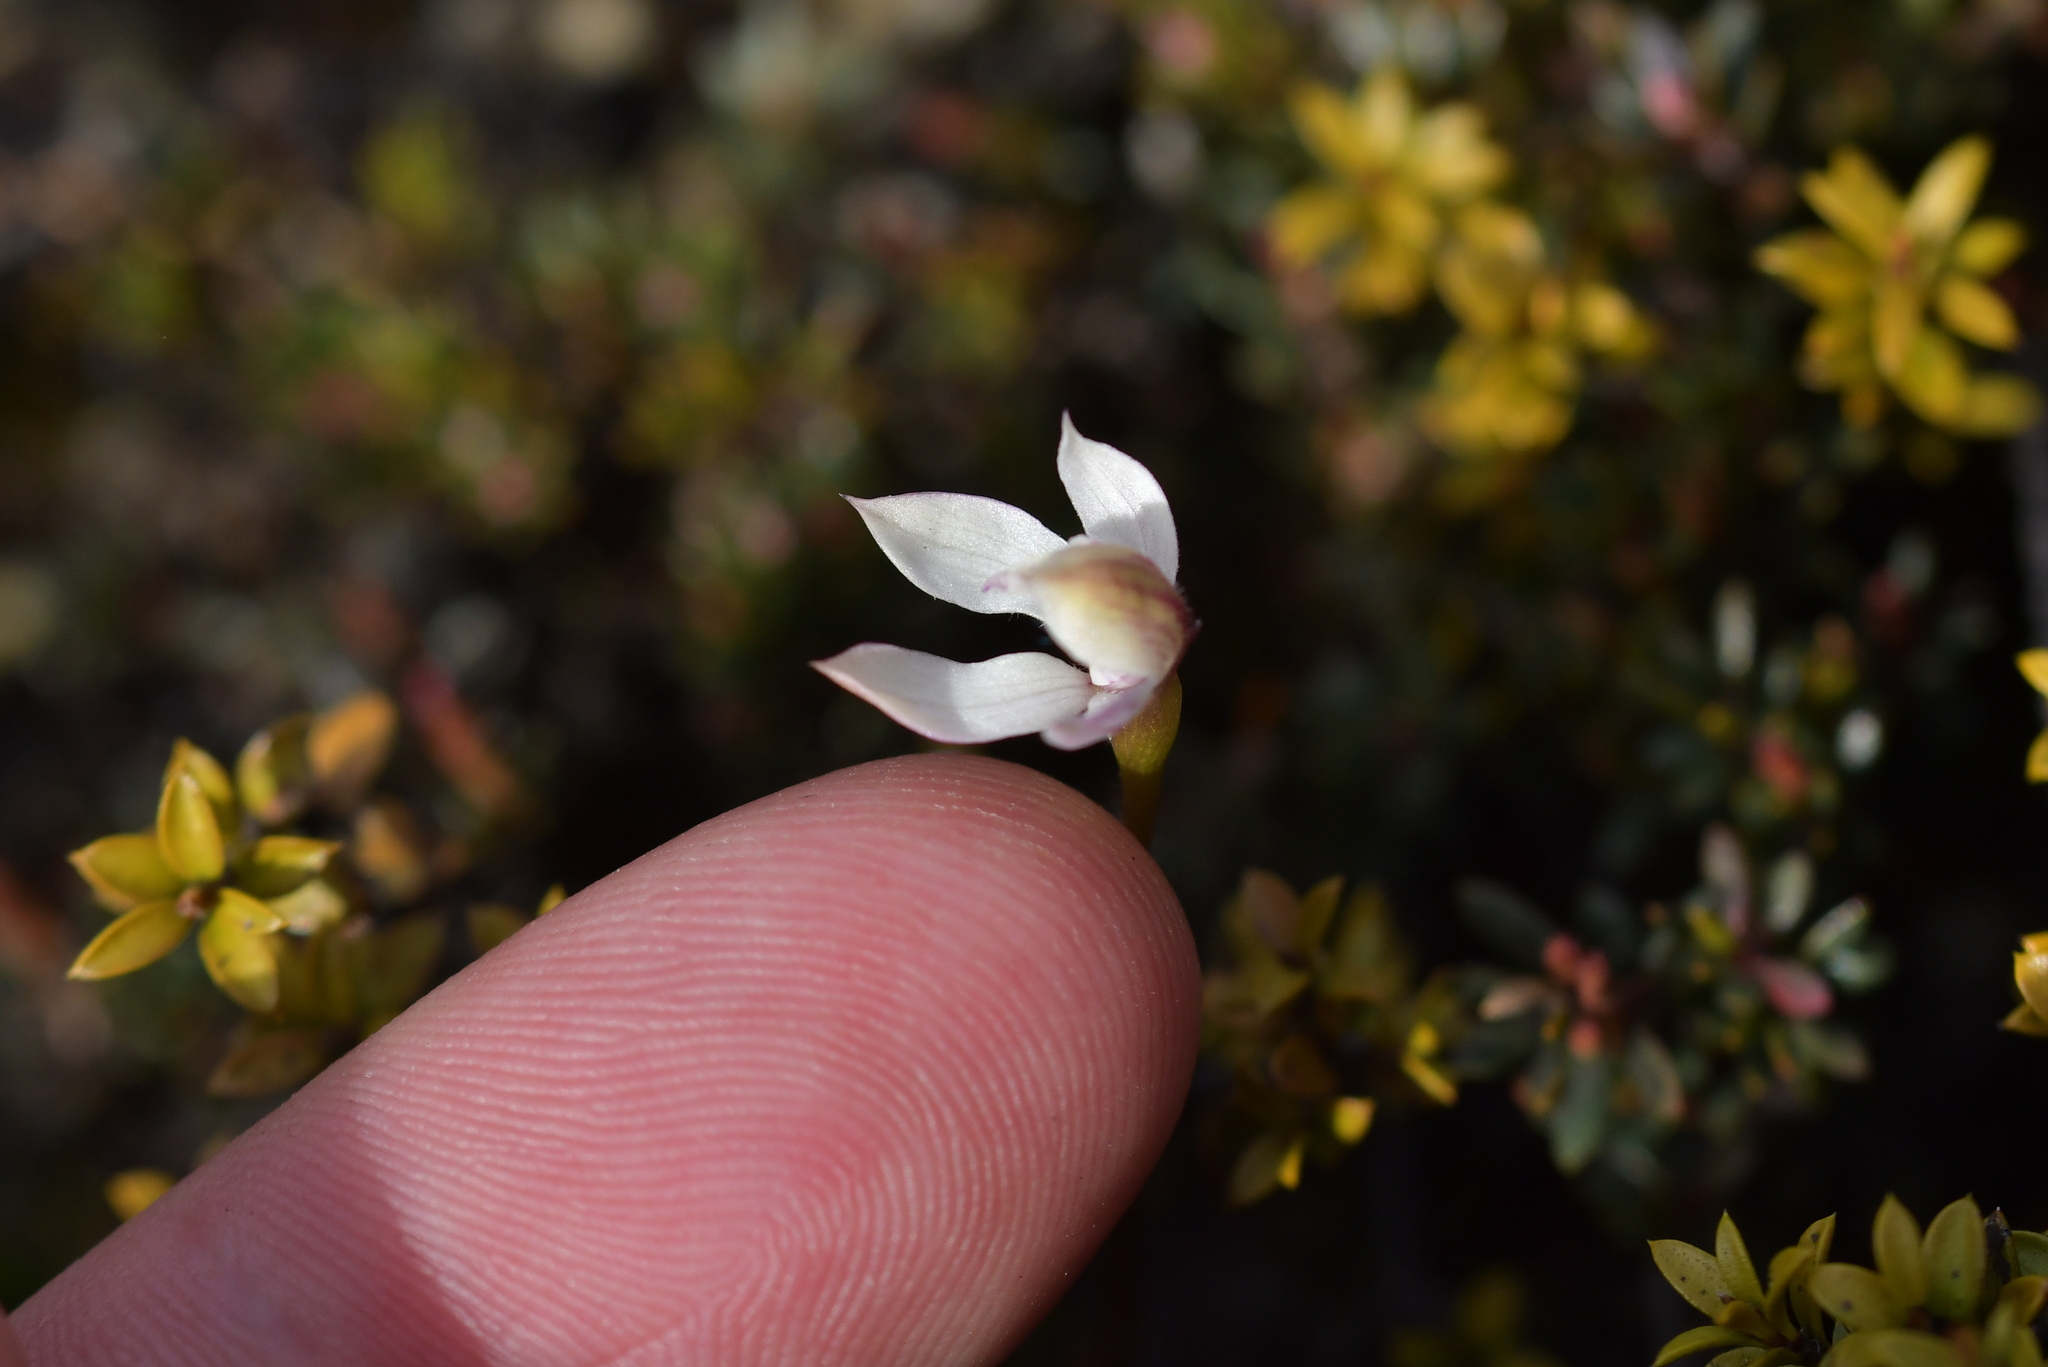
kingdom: Plantae
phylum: Tracheophyta
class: Liliopsida
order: Asparagales
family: Orchidaceae
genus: Caladenia
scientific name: Caladenia lyallii
